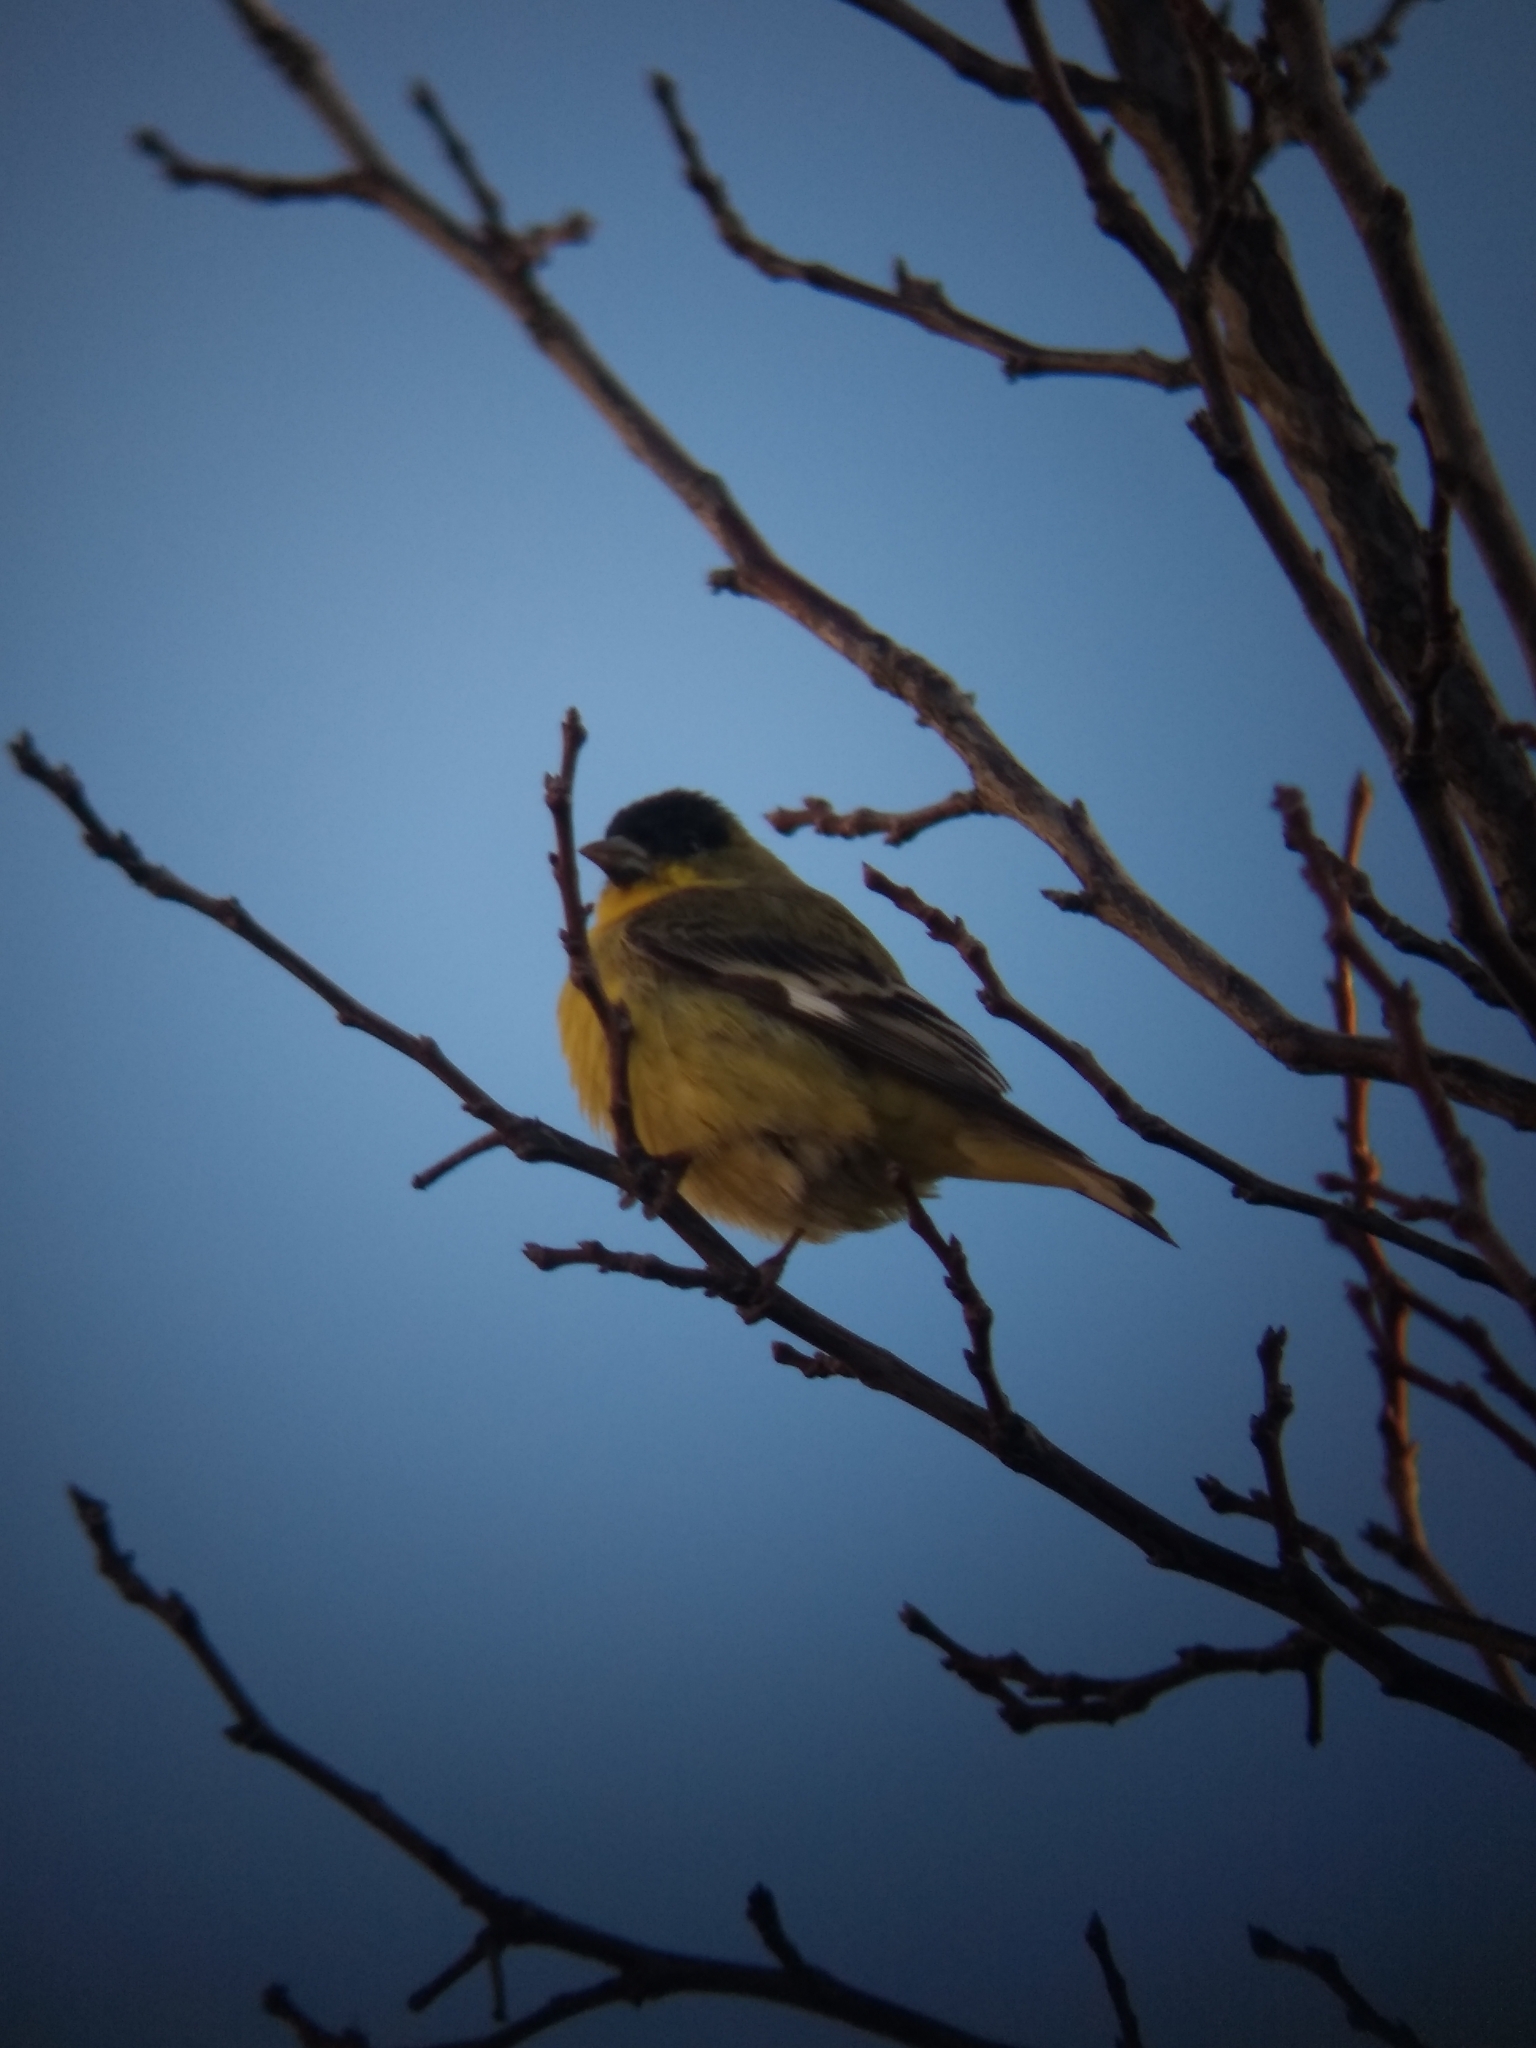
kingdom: Animalia
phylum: Chordata
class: Aves
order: Passeriformes
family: Fringillidae
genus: Spinus
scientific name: Spinus psaltria
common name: Lesser goldfinch
